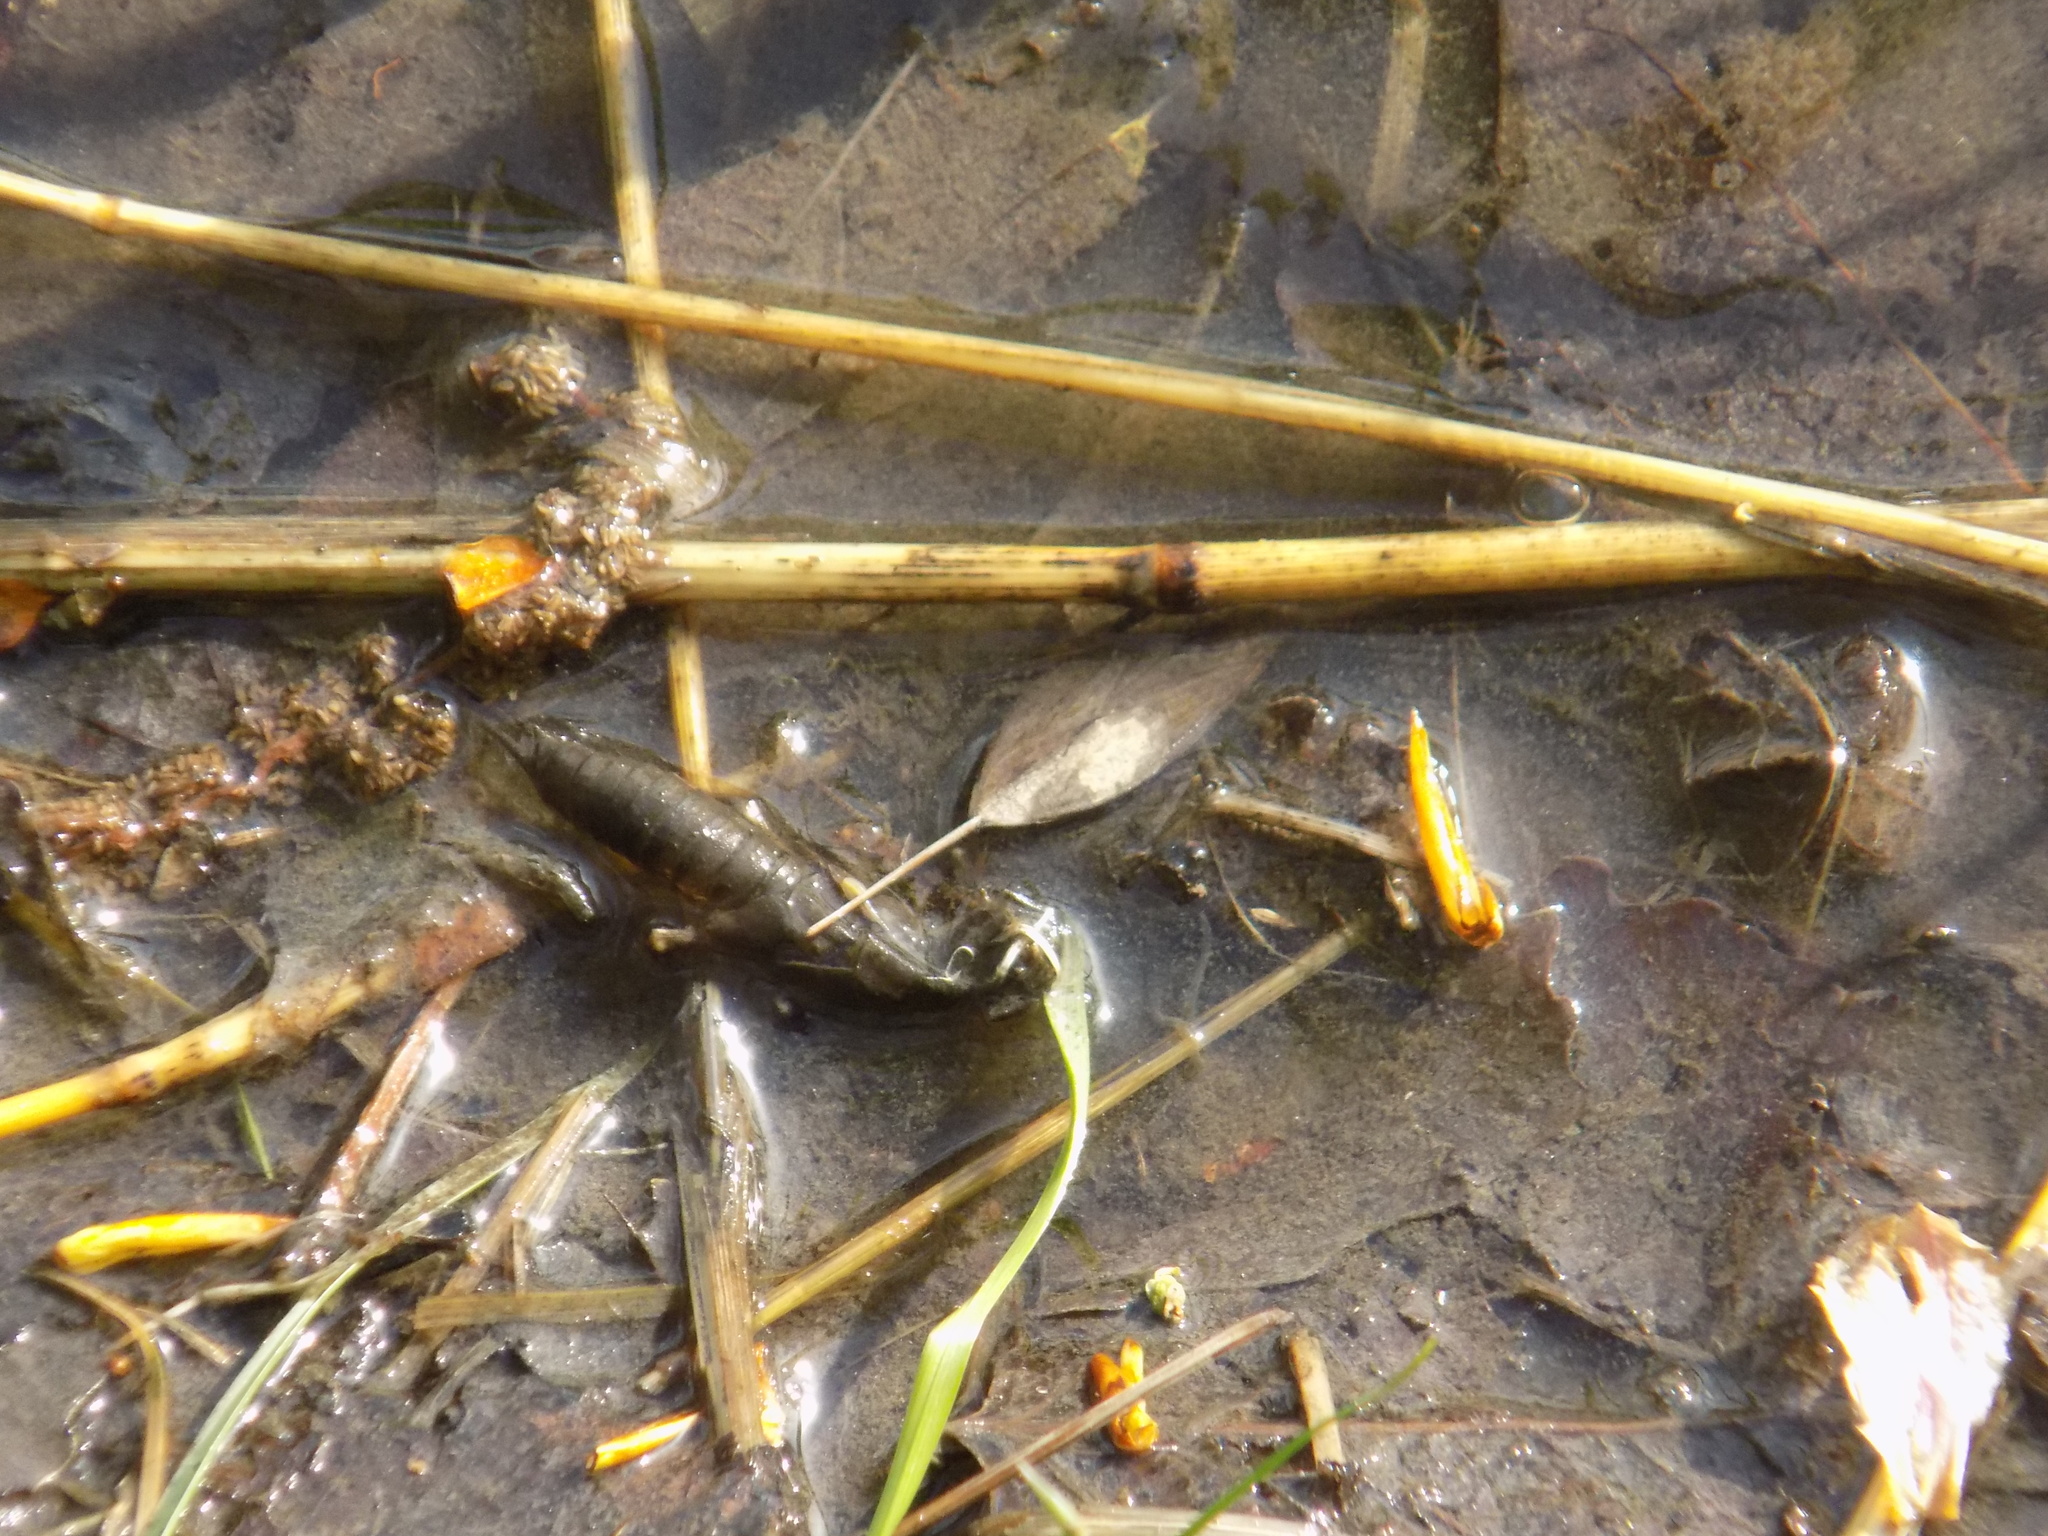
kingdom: Animalia
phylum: Arthropoda
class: Insecta
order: Hemiptera
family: Nepidae
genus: Nepa
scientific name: Nepa cinerea
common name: Water scorpion
